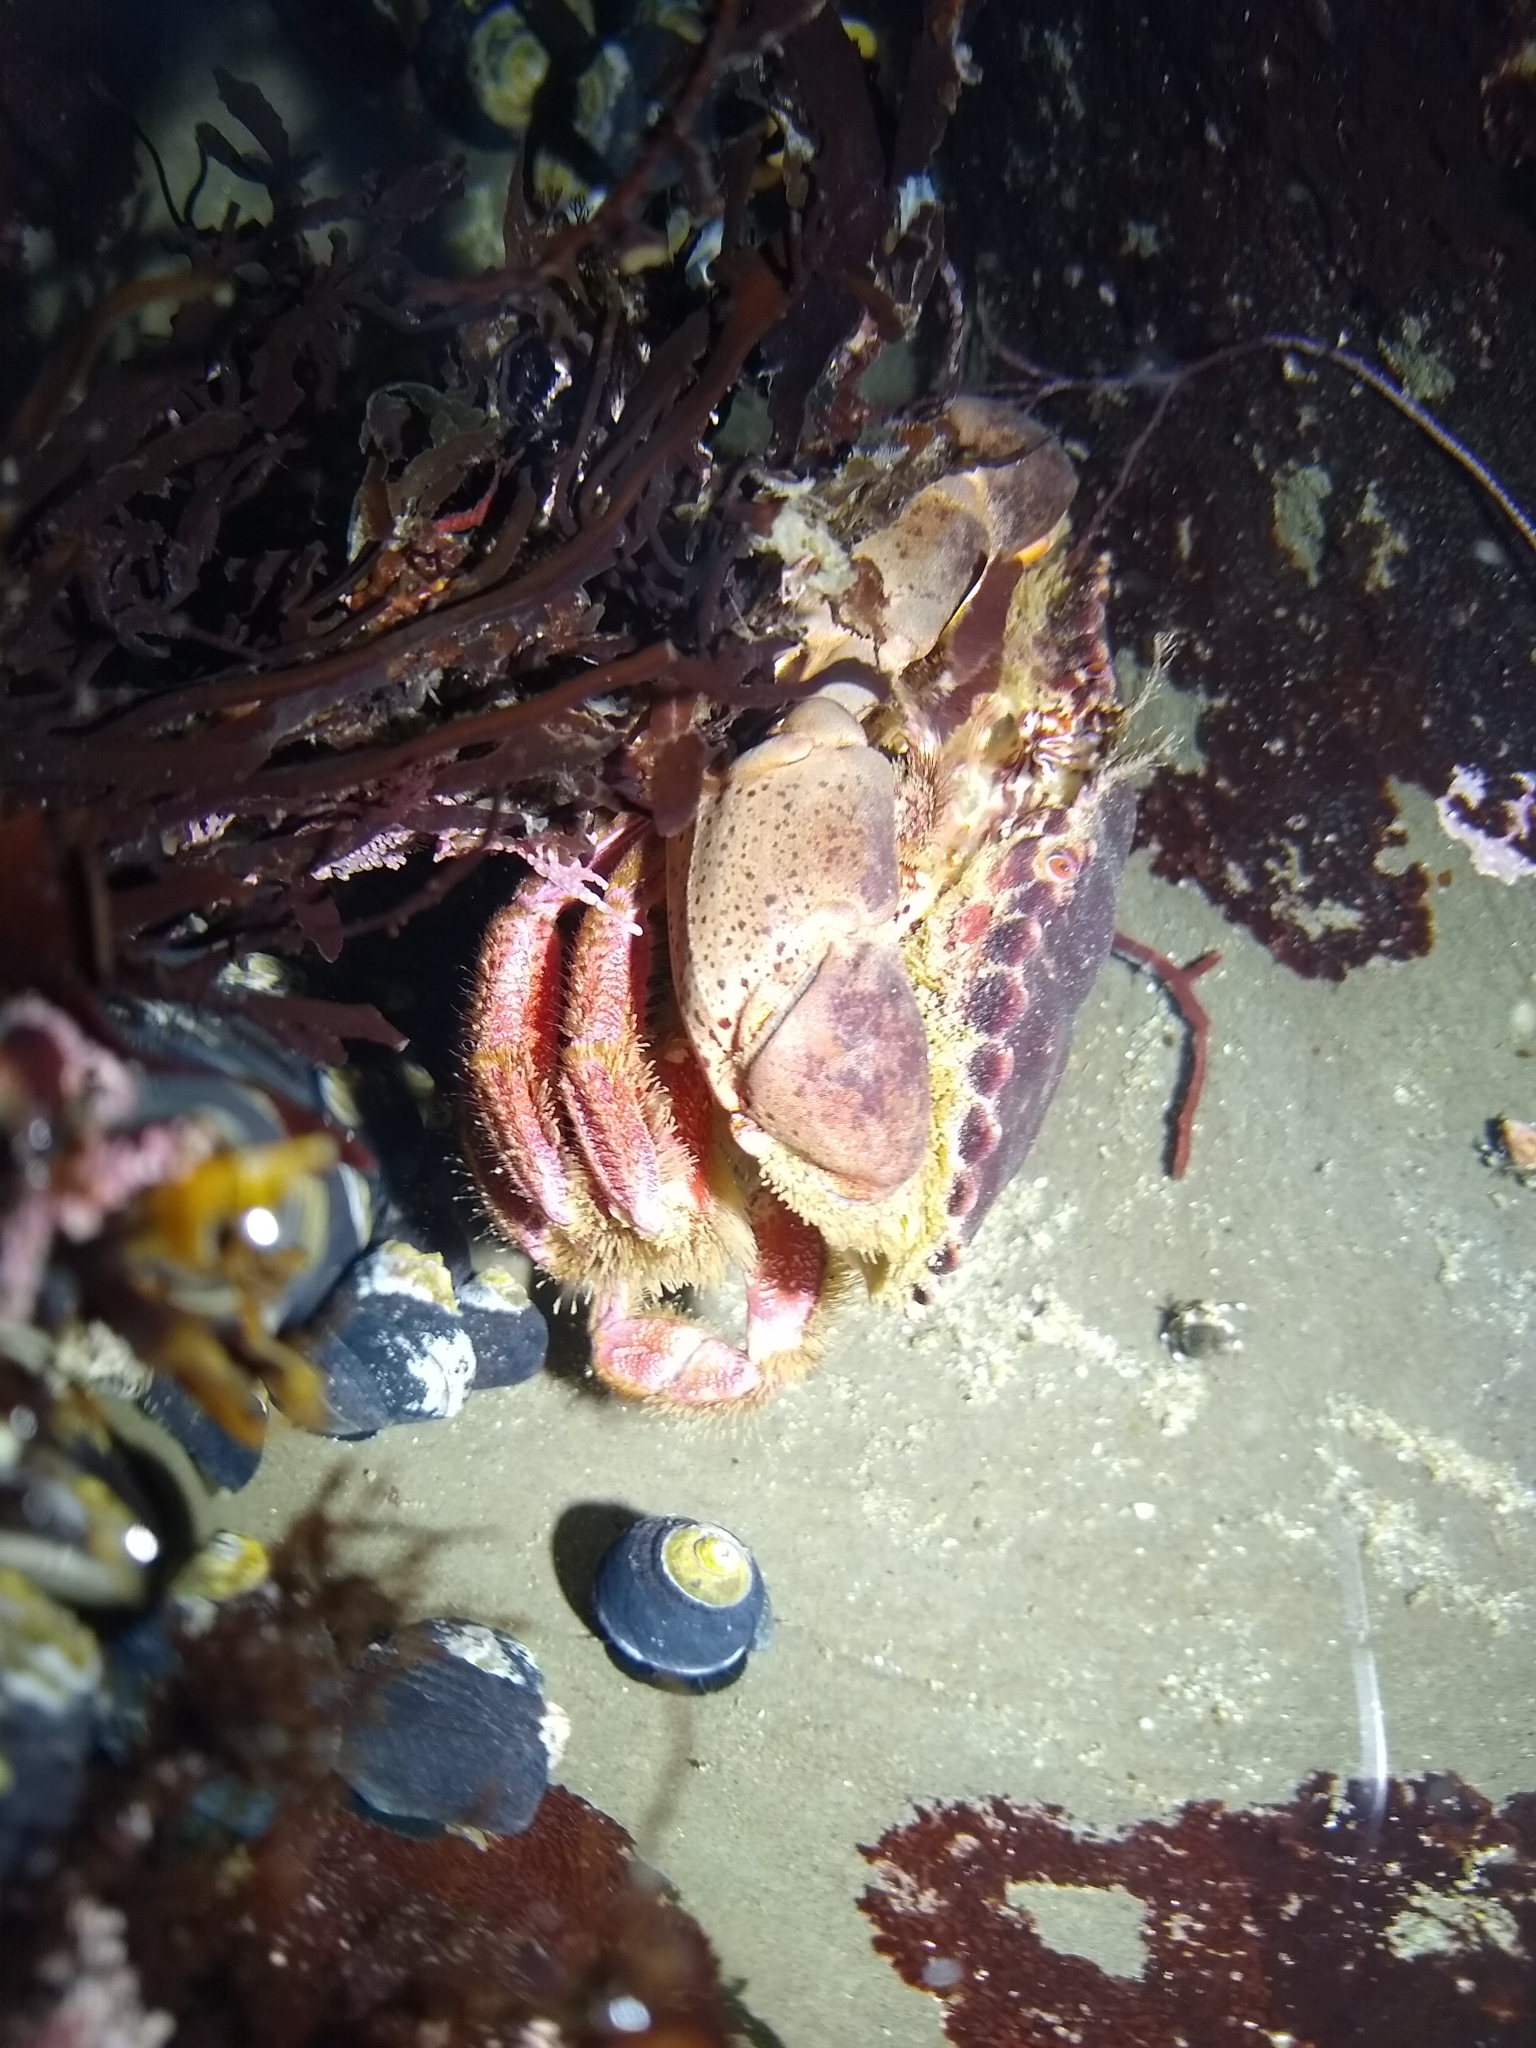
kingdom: Animalia
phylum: Arthropoda
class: Malacostraca
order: Decapoda
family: Cancridae
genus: Romaleon
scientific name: Romaleon antennarium
